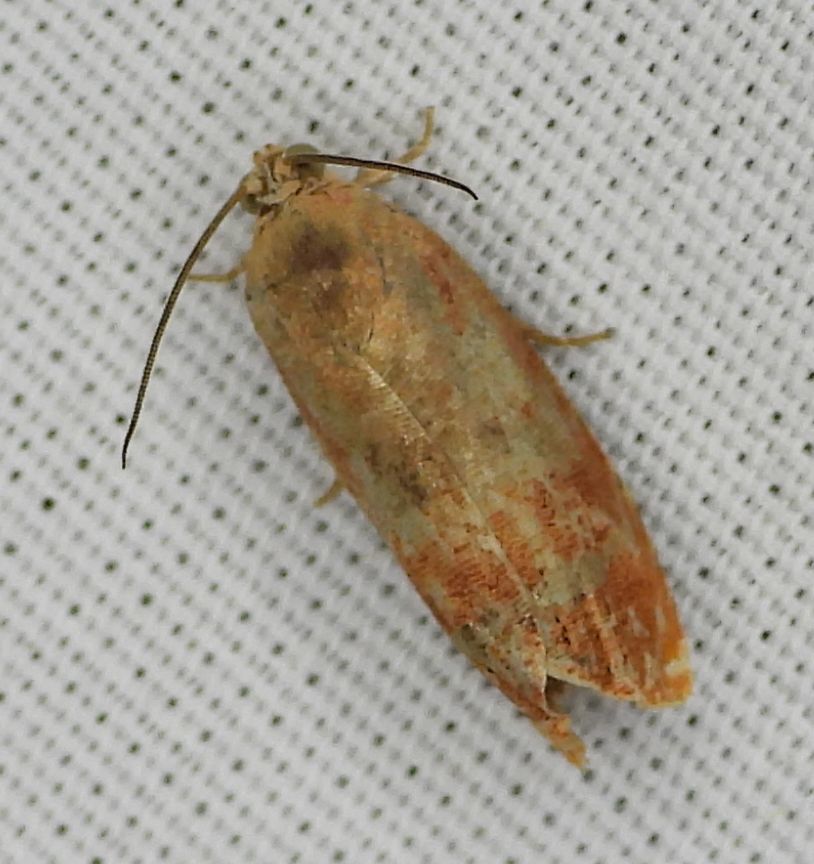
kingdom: Animalia
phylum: Arthropoda
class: Insecta
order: Lepidoptera
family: Tortricidae
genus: Cydia
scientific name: Cydia latiferreana
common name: Filbertworm moth
